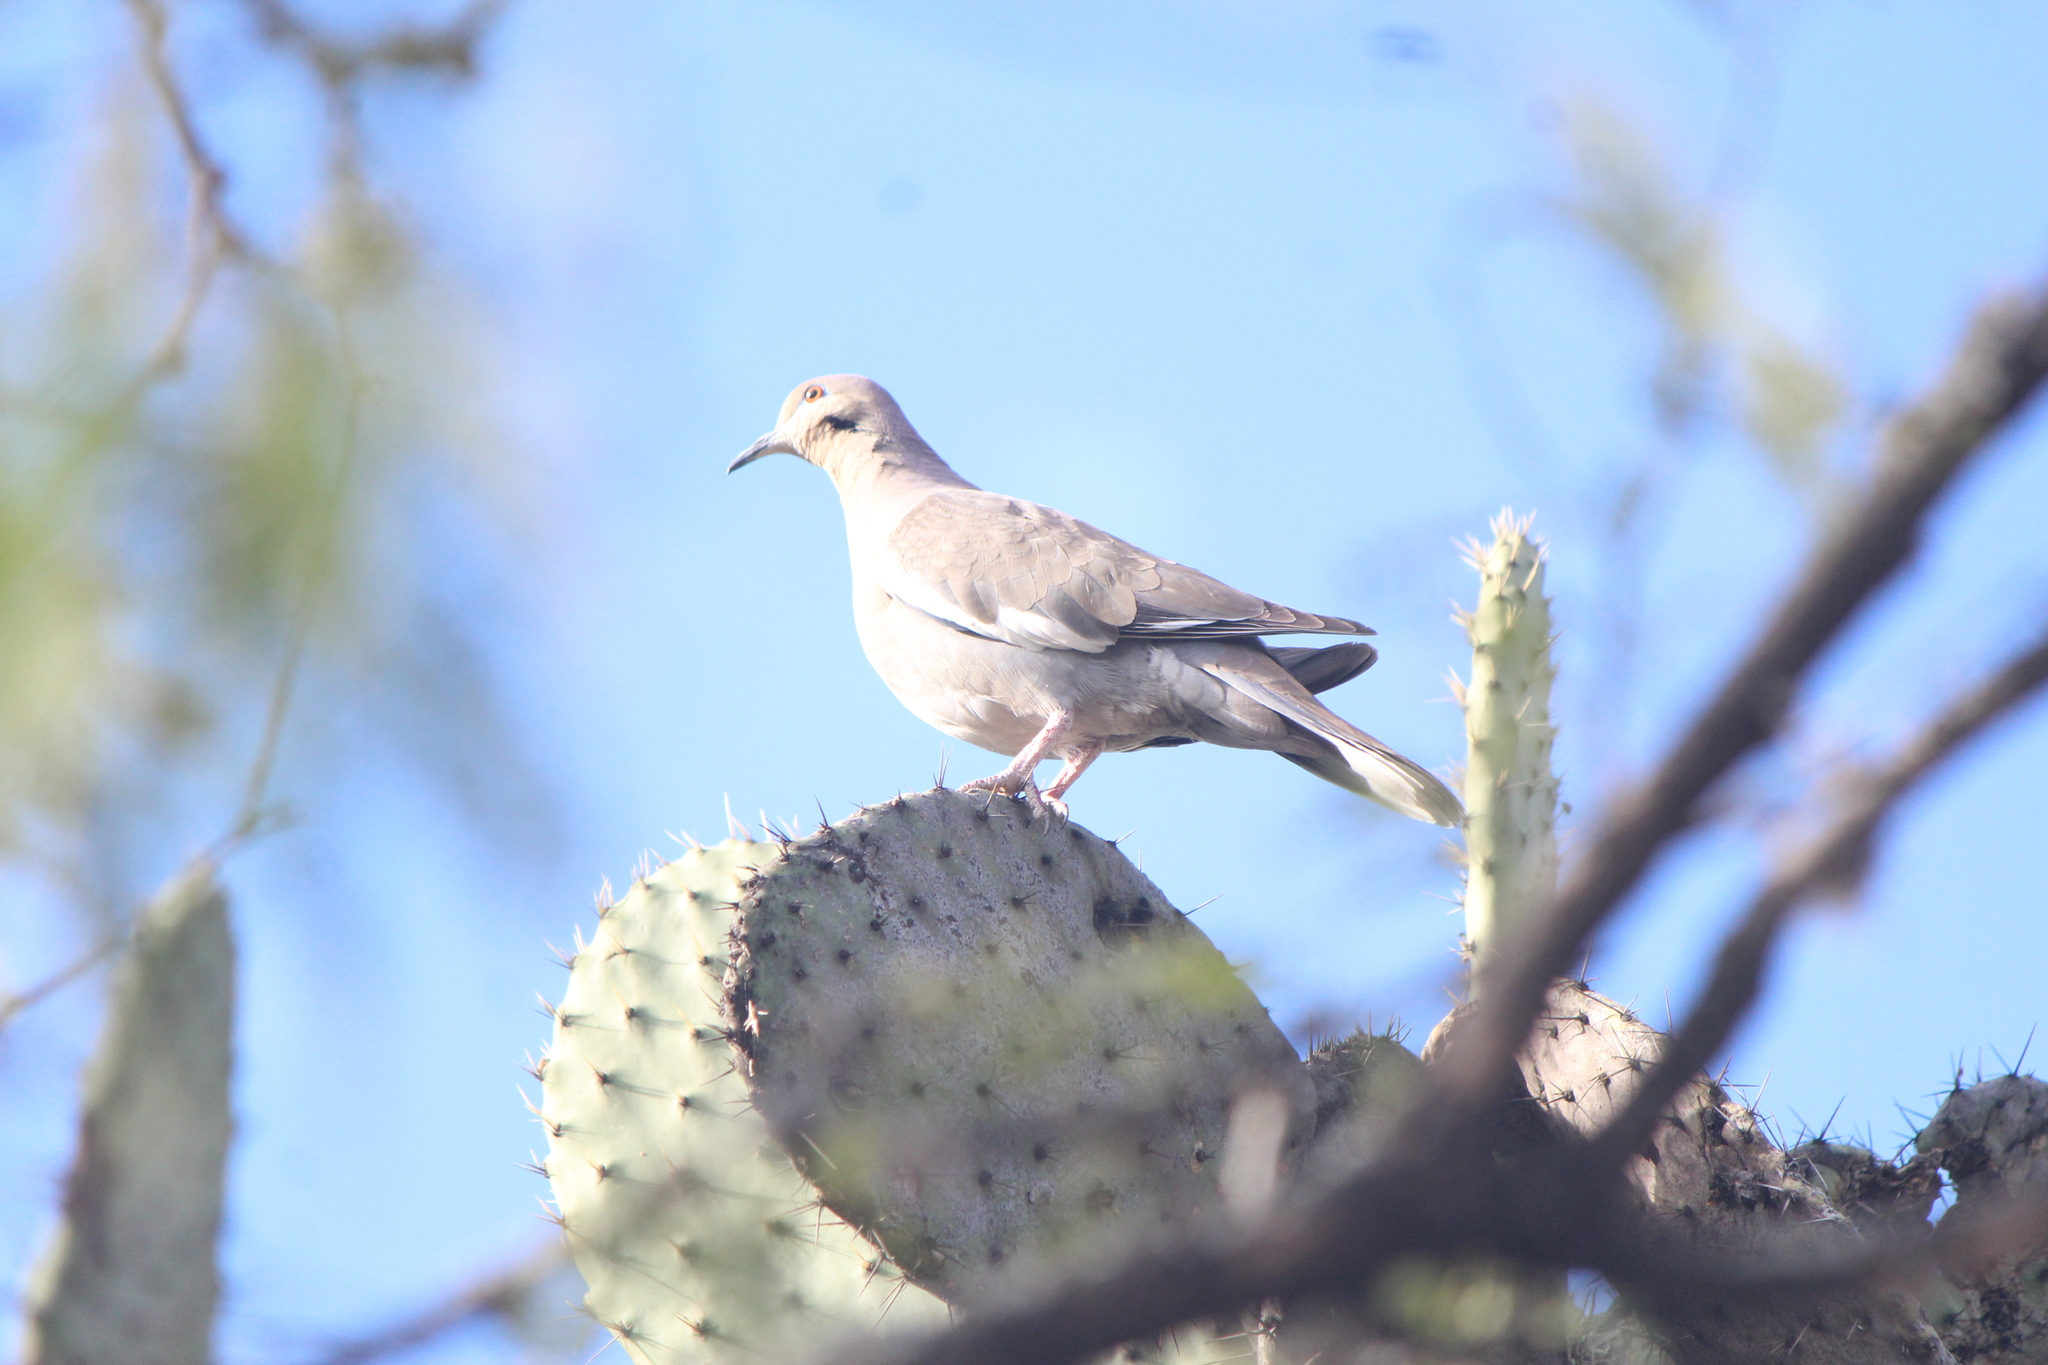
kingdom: Animalia
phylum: Chordata
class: Aves
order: Columbiformes
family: Columbidae
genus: Zenaida
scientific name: Zenaida asiatica
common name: White-winged dove
